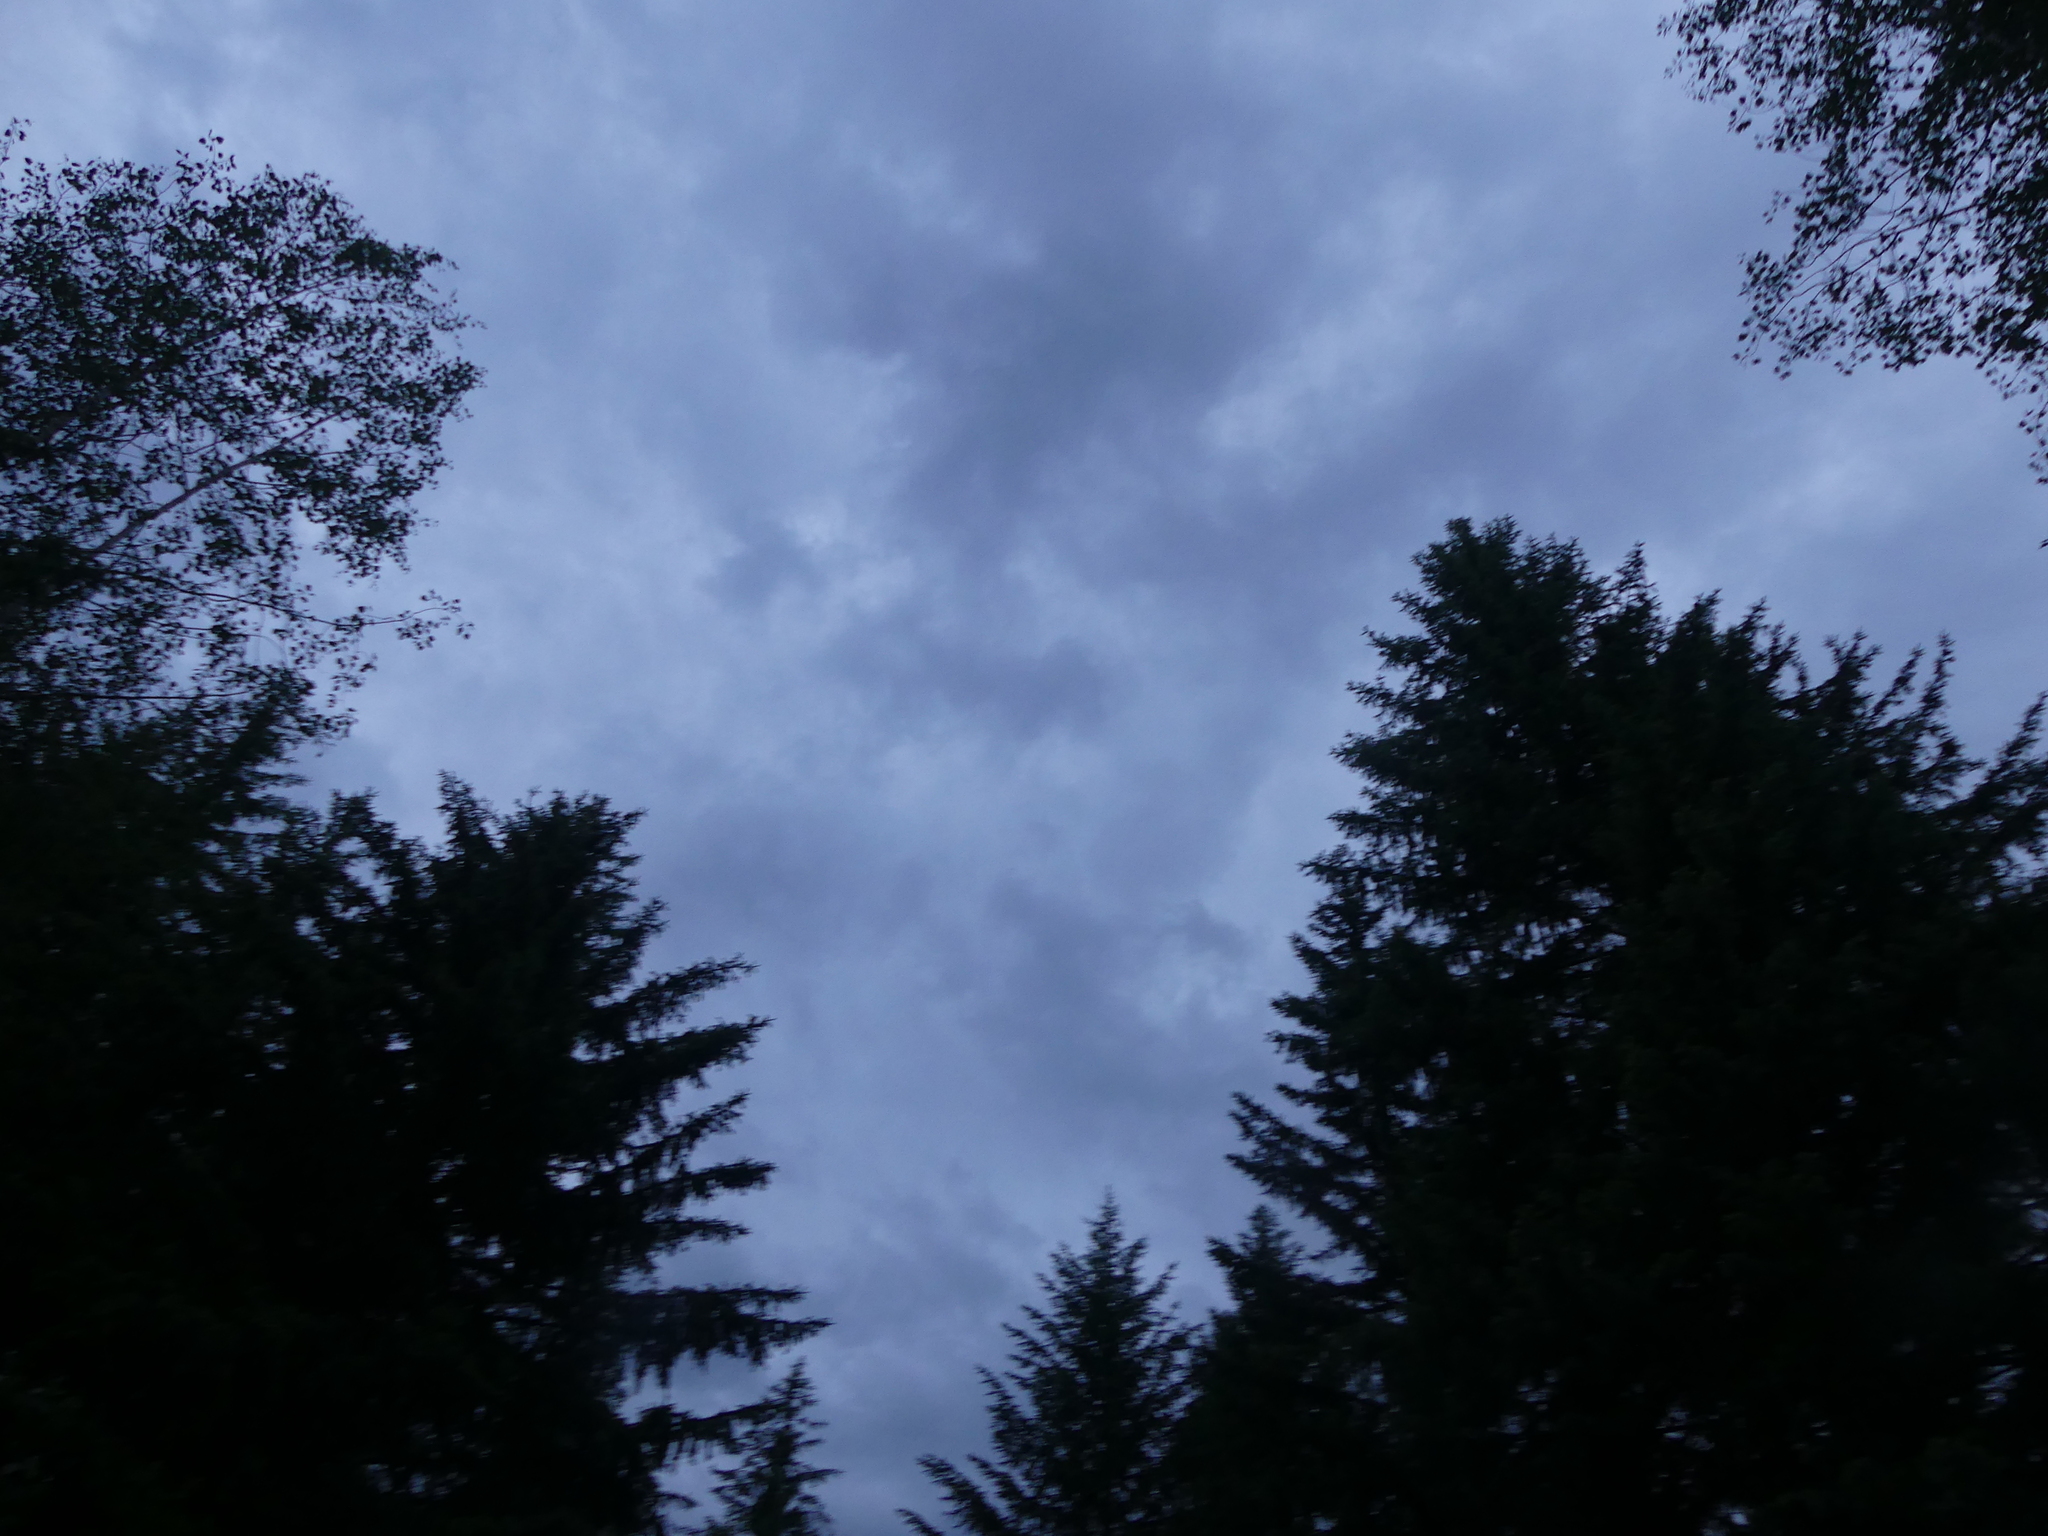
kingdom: Animalia
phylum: Chordata
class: Aves
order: Caprimulgiformes
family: Caprimulgidae
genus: Chordeiles
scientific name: Chordeiles minor
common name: Common nighthawk
